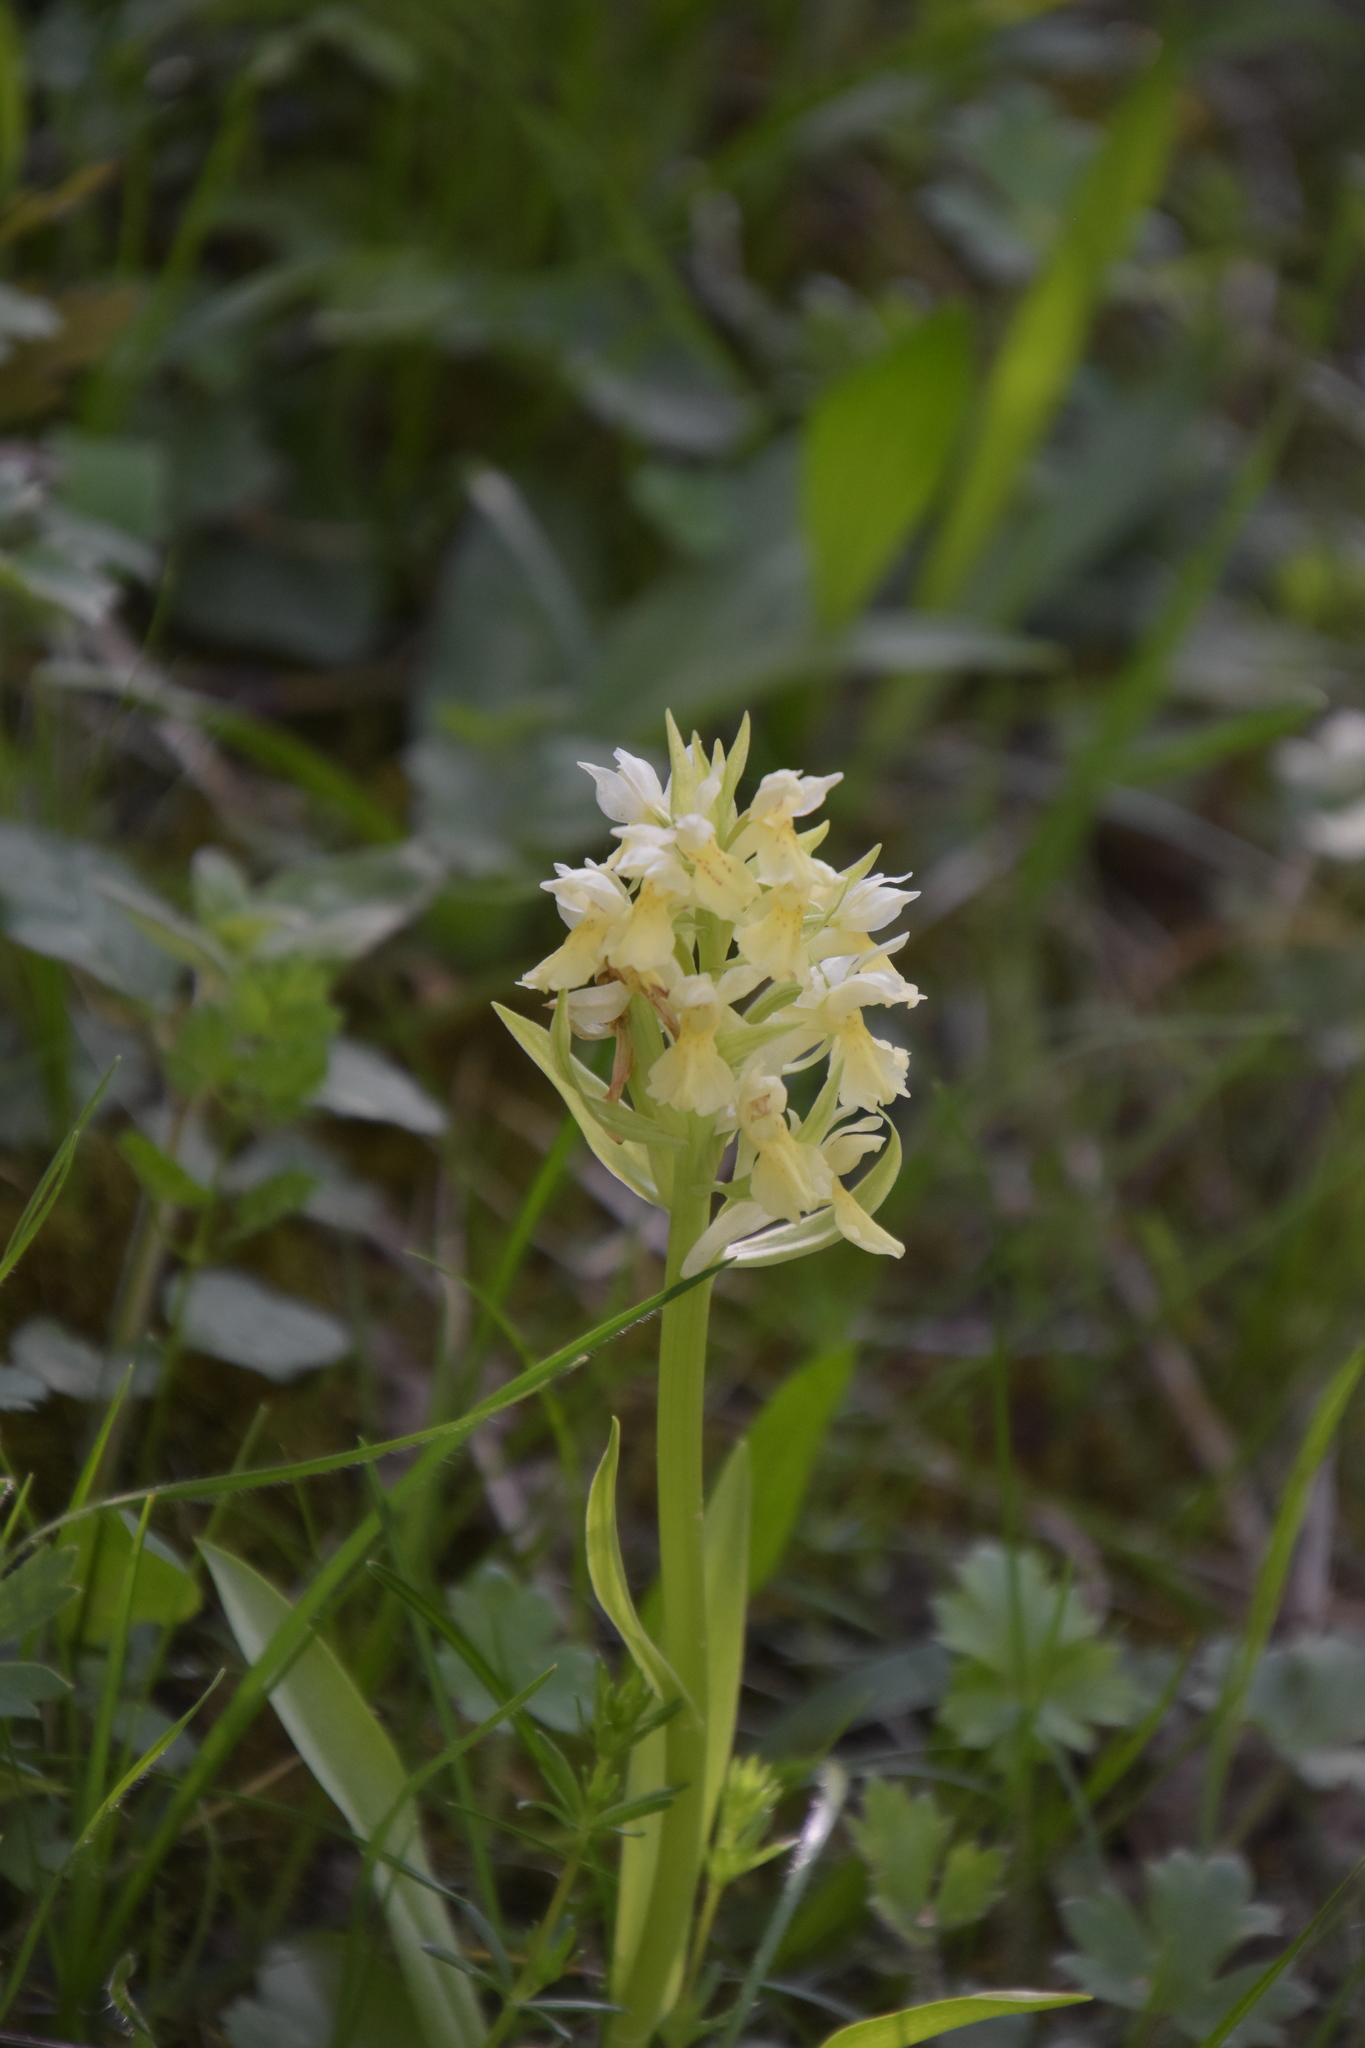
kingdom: Plantae
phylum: Tracheophyta
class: Liliopsida
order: Asparagales
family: Orchidaceae
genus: Dactylorhiza
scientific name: Dactylorhiza sambucina
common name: Elder-flowered orchid
